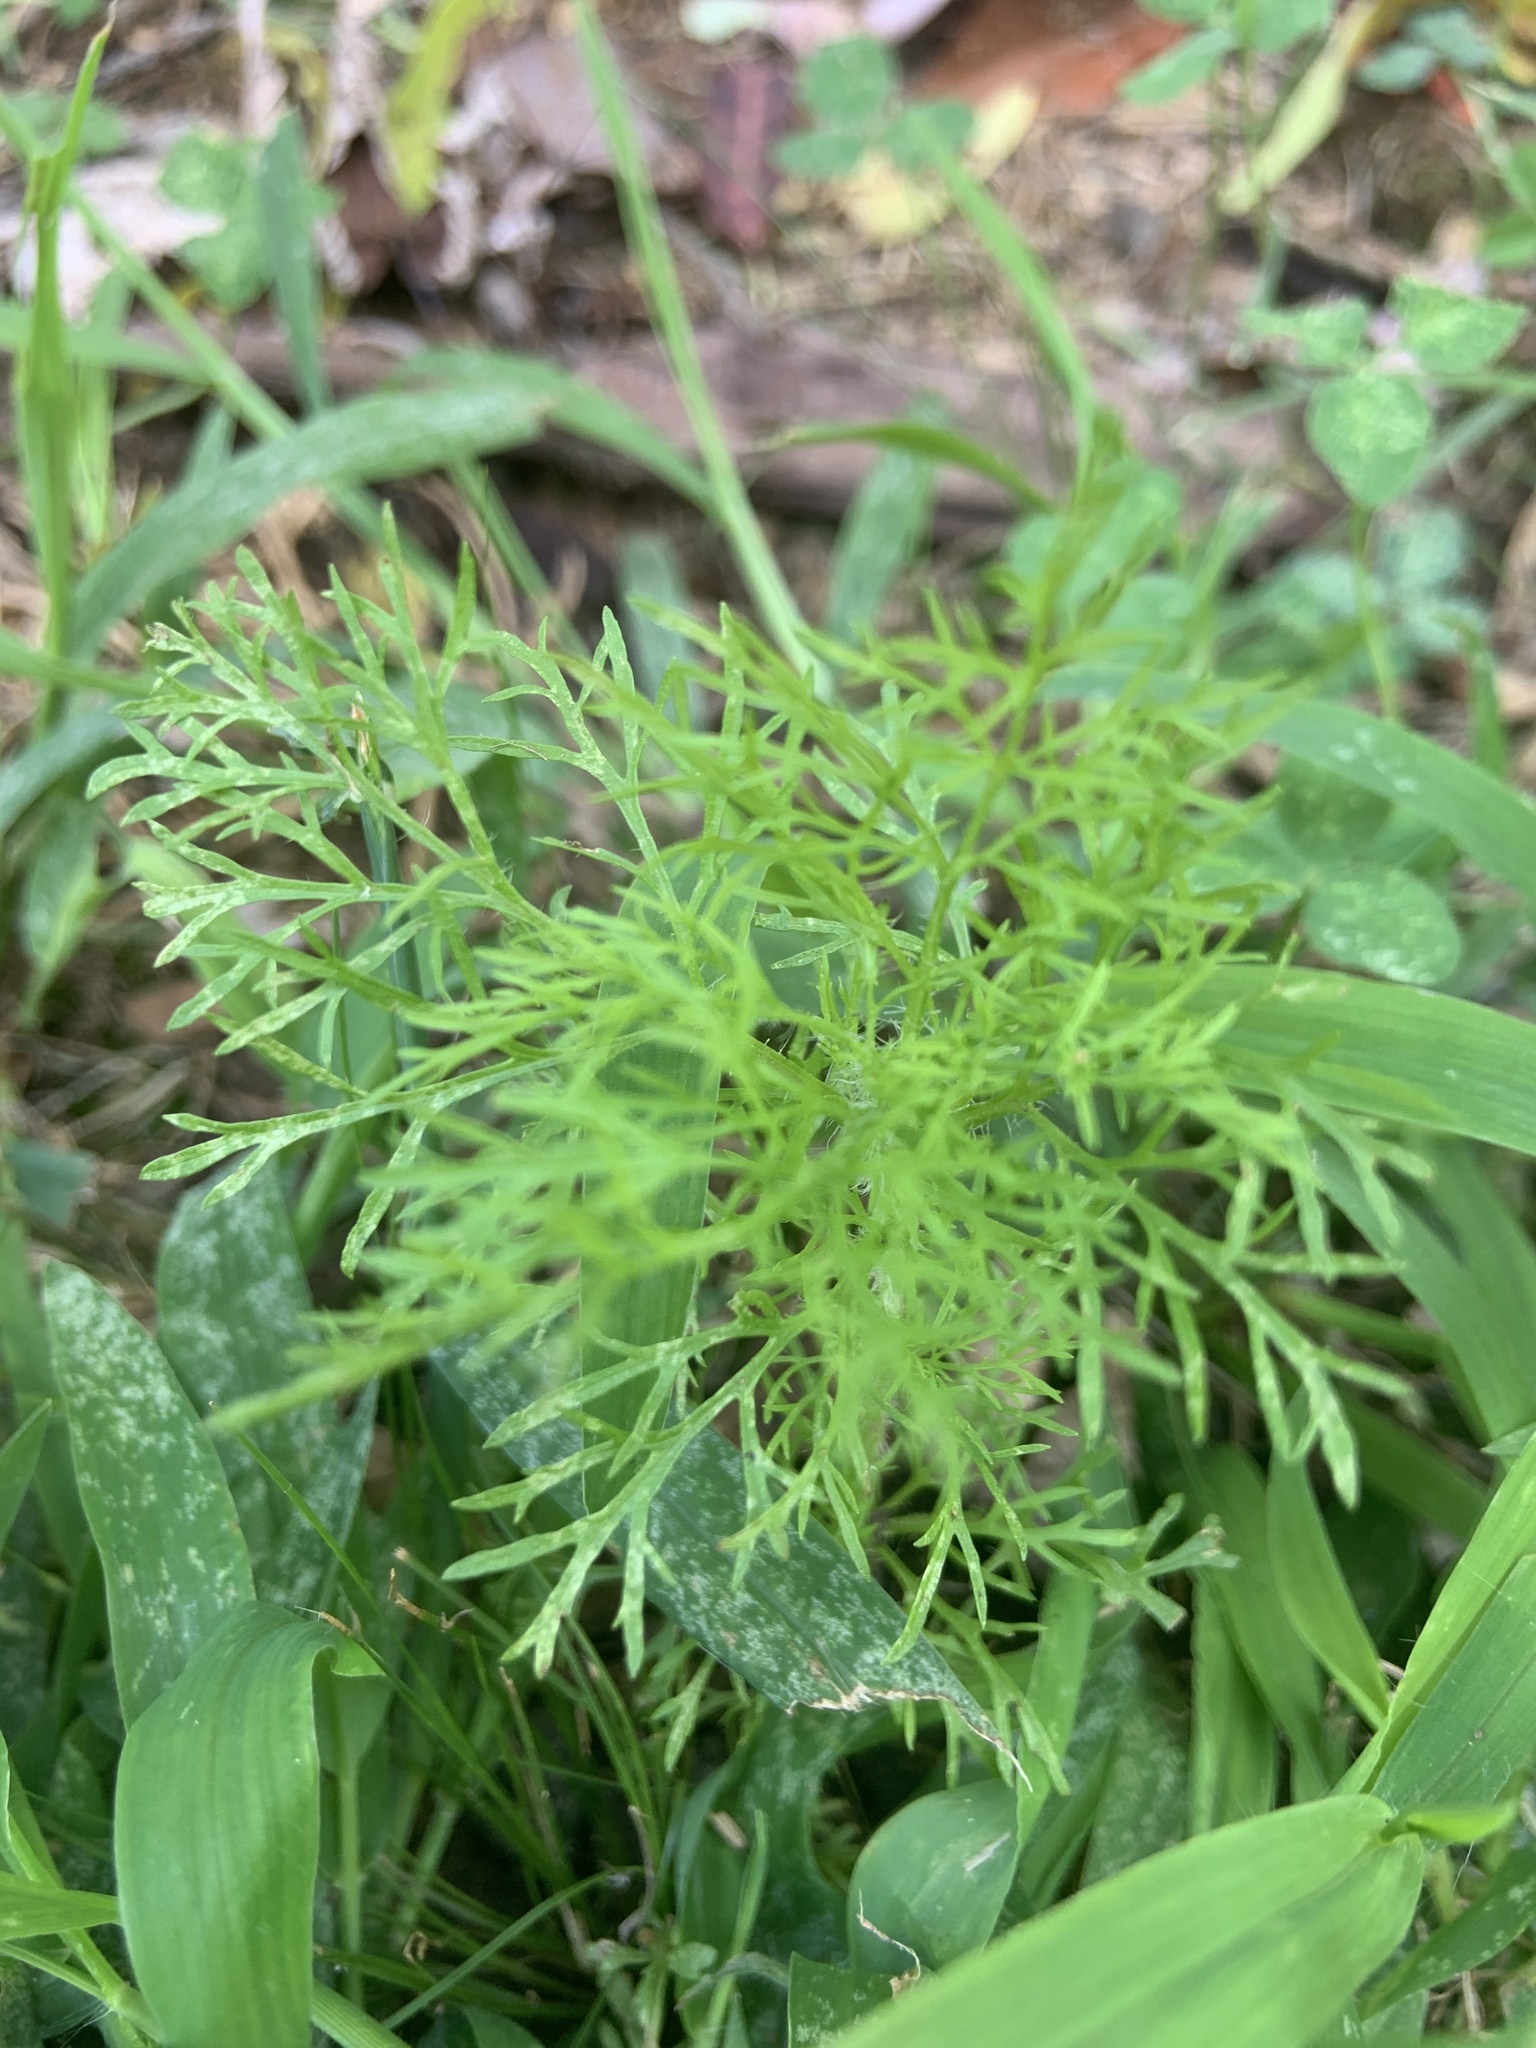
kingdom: Plantae
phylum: Tracheophyta
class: Magnoliopsida
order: Asterales
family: Asteraceae
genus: Eupatorium
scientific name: Eupatorium capillifolium
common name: Dog-fennel
